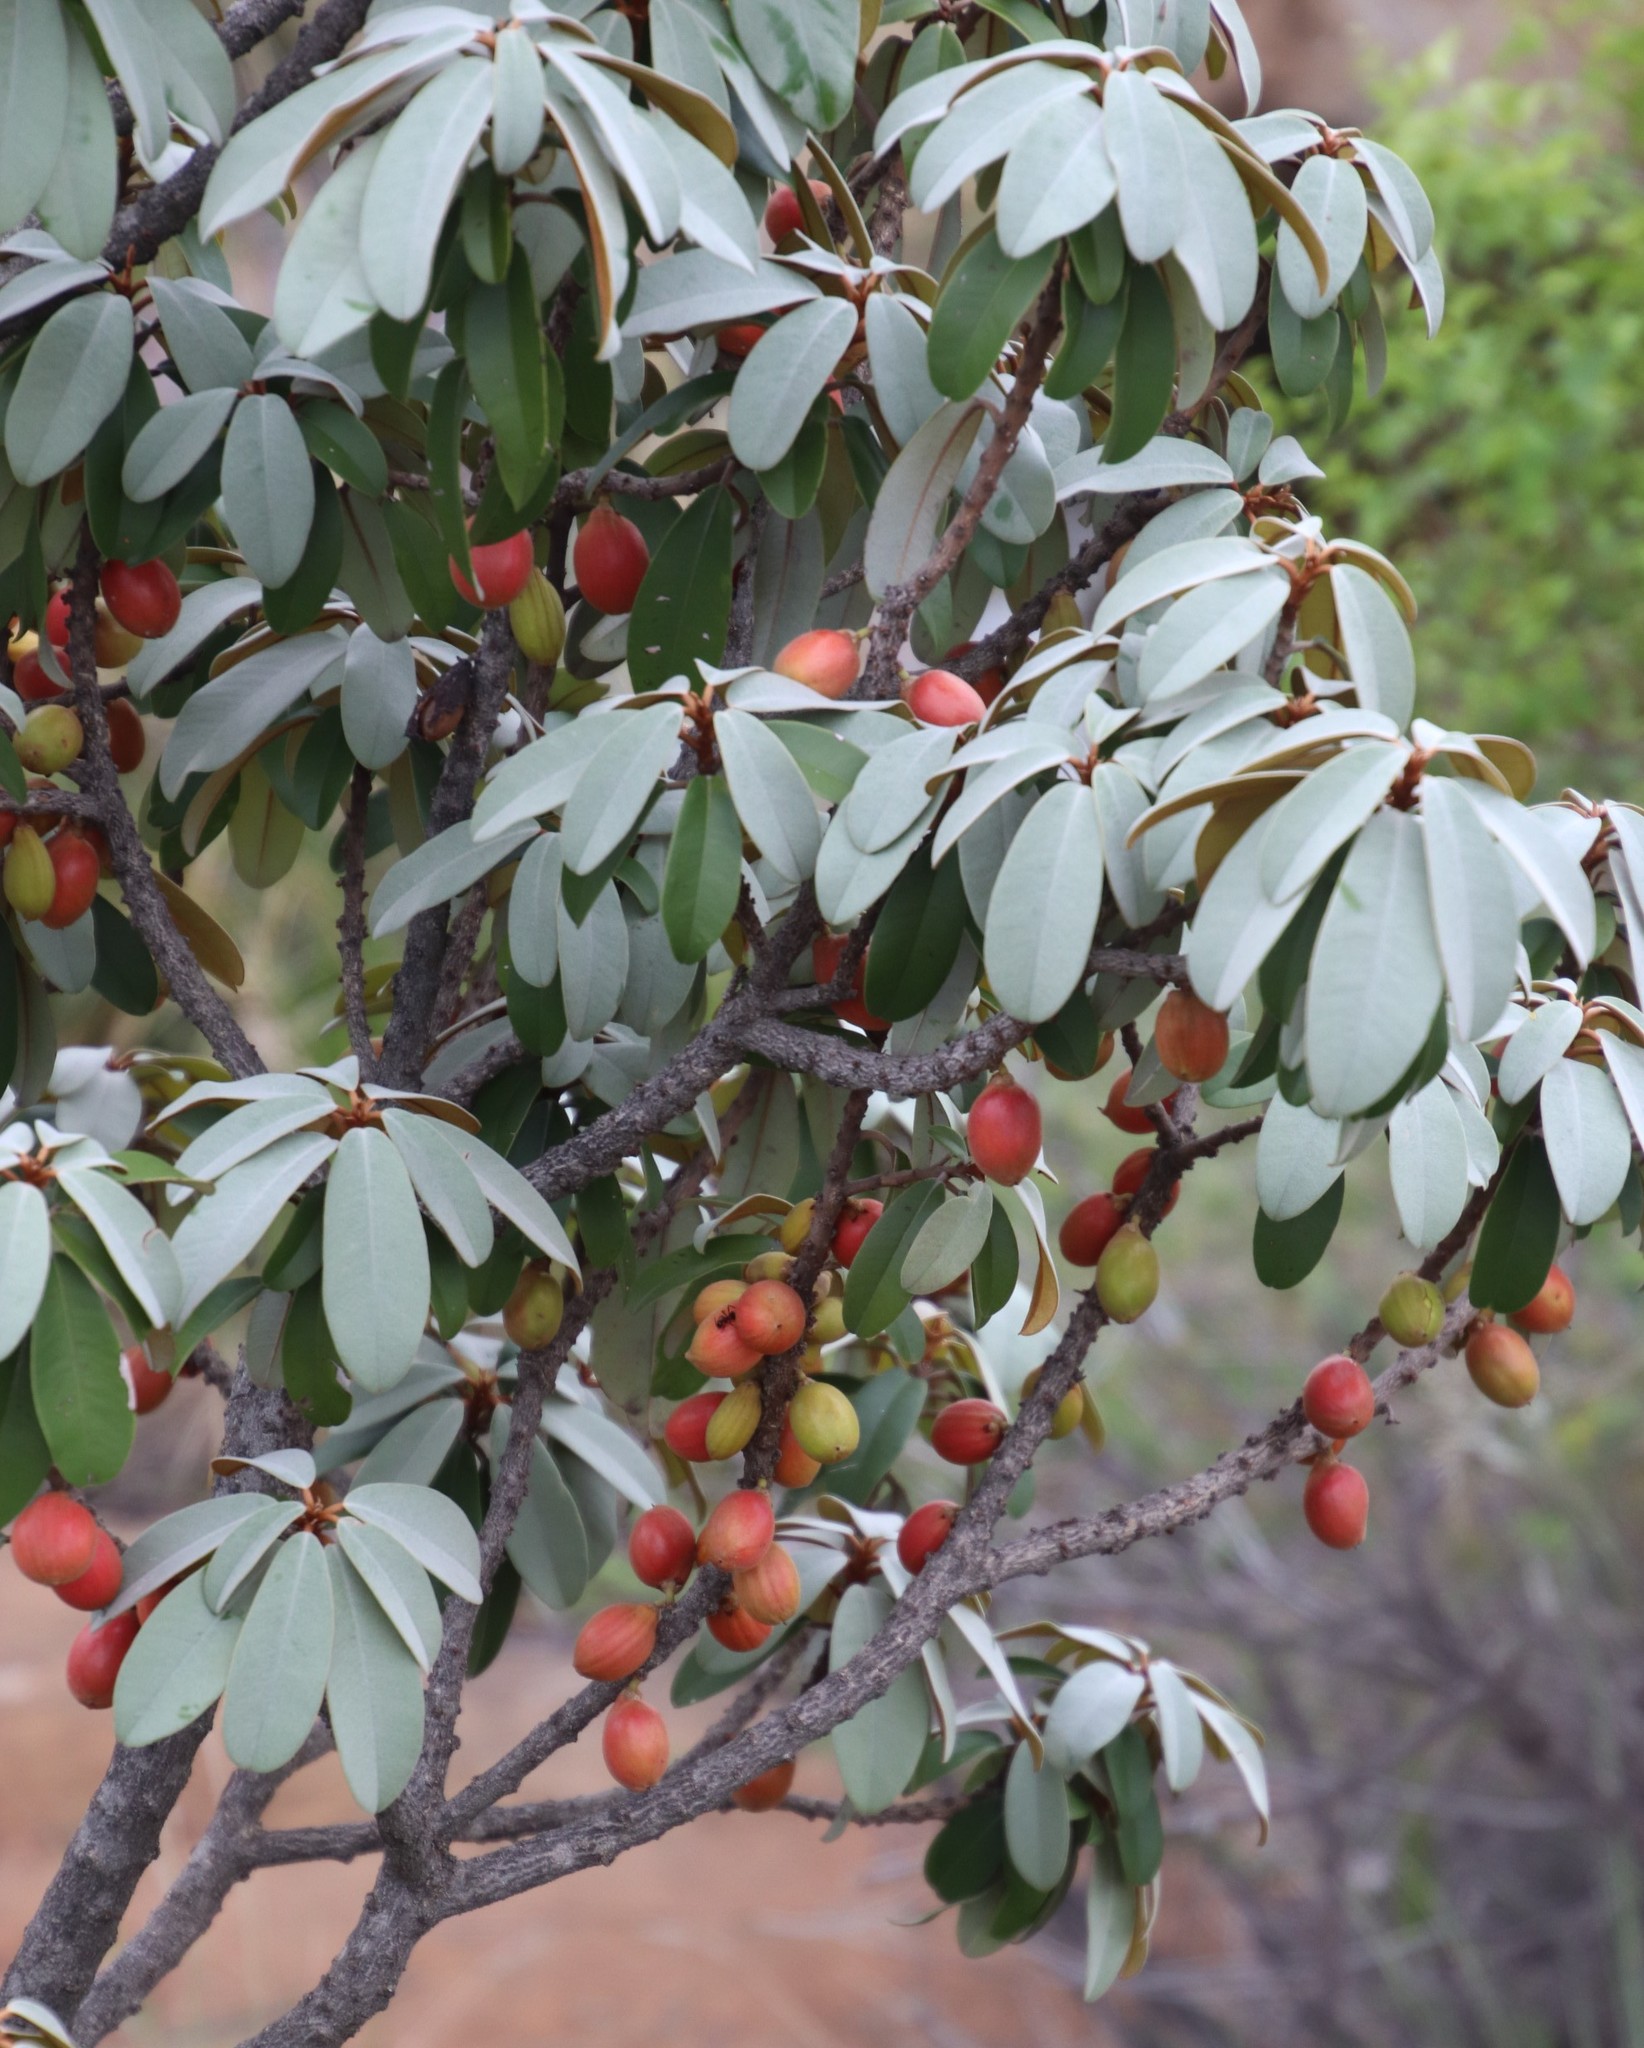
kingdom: Plantae
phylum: Tracheophyta
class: Magnoliopsida
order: Ericales
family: Sapotaceae
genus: Englerophytum
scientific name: Englerophytum magalismontanum
